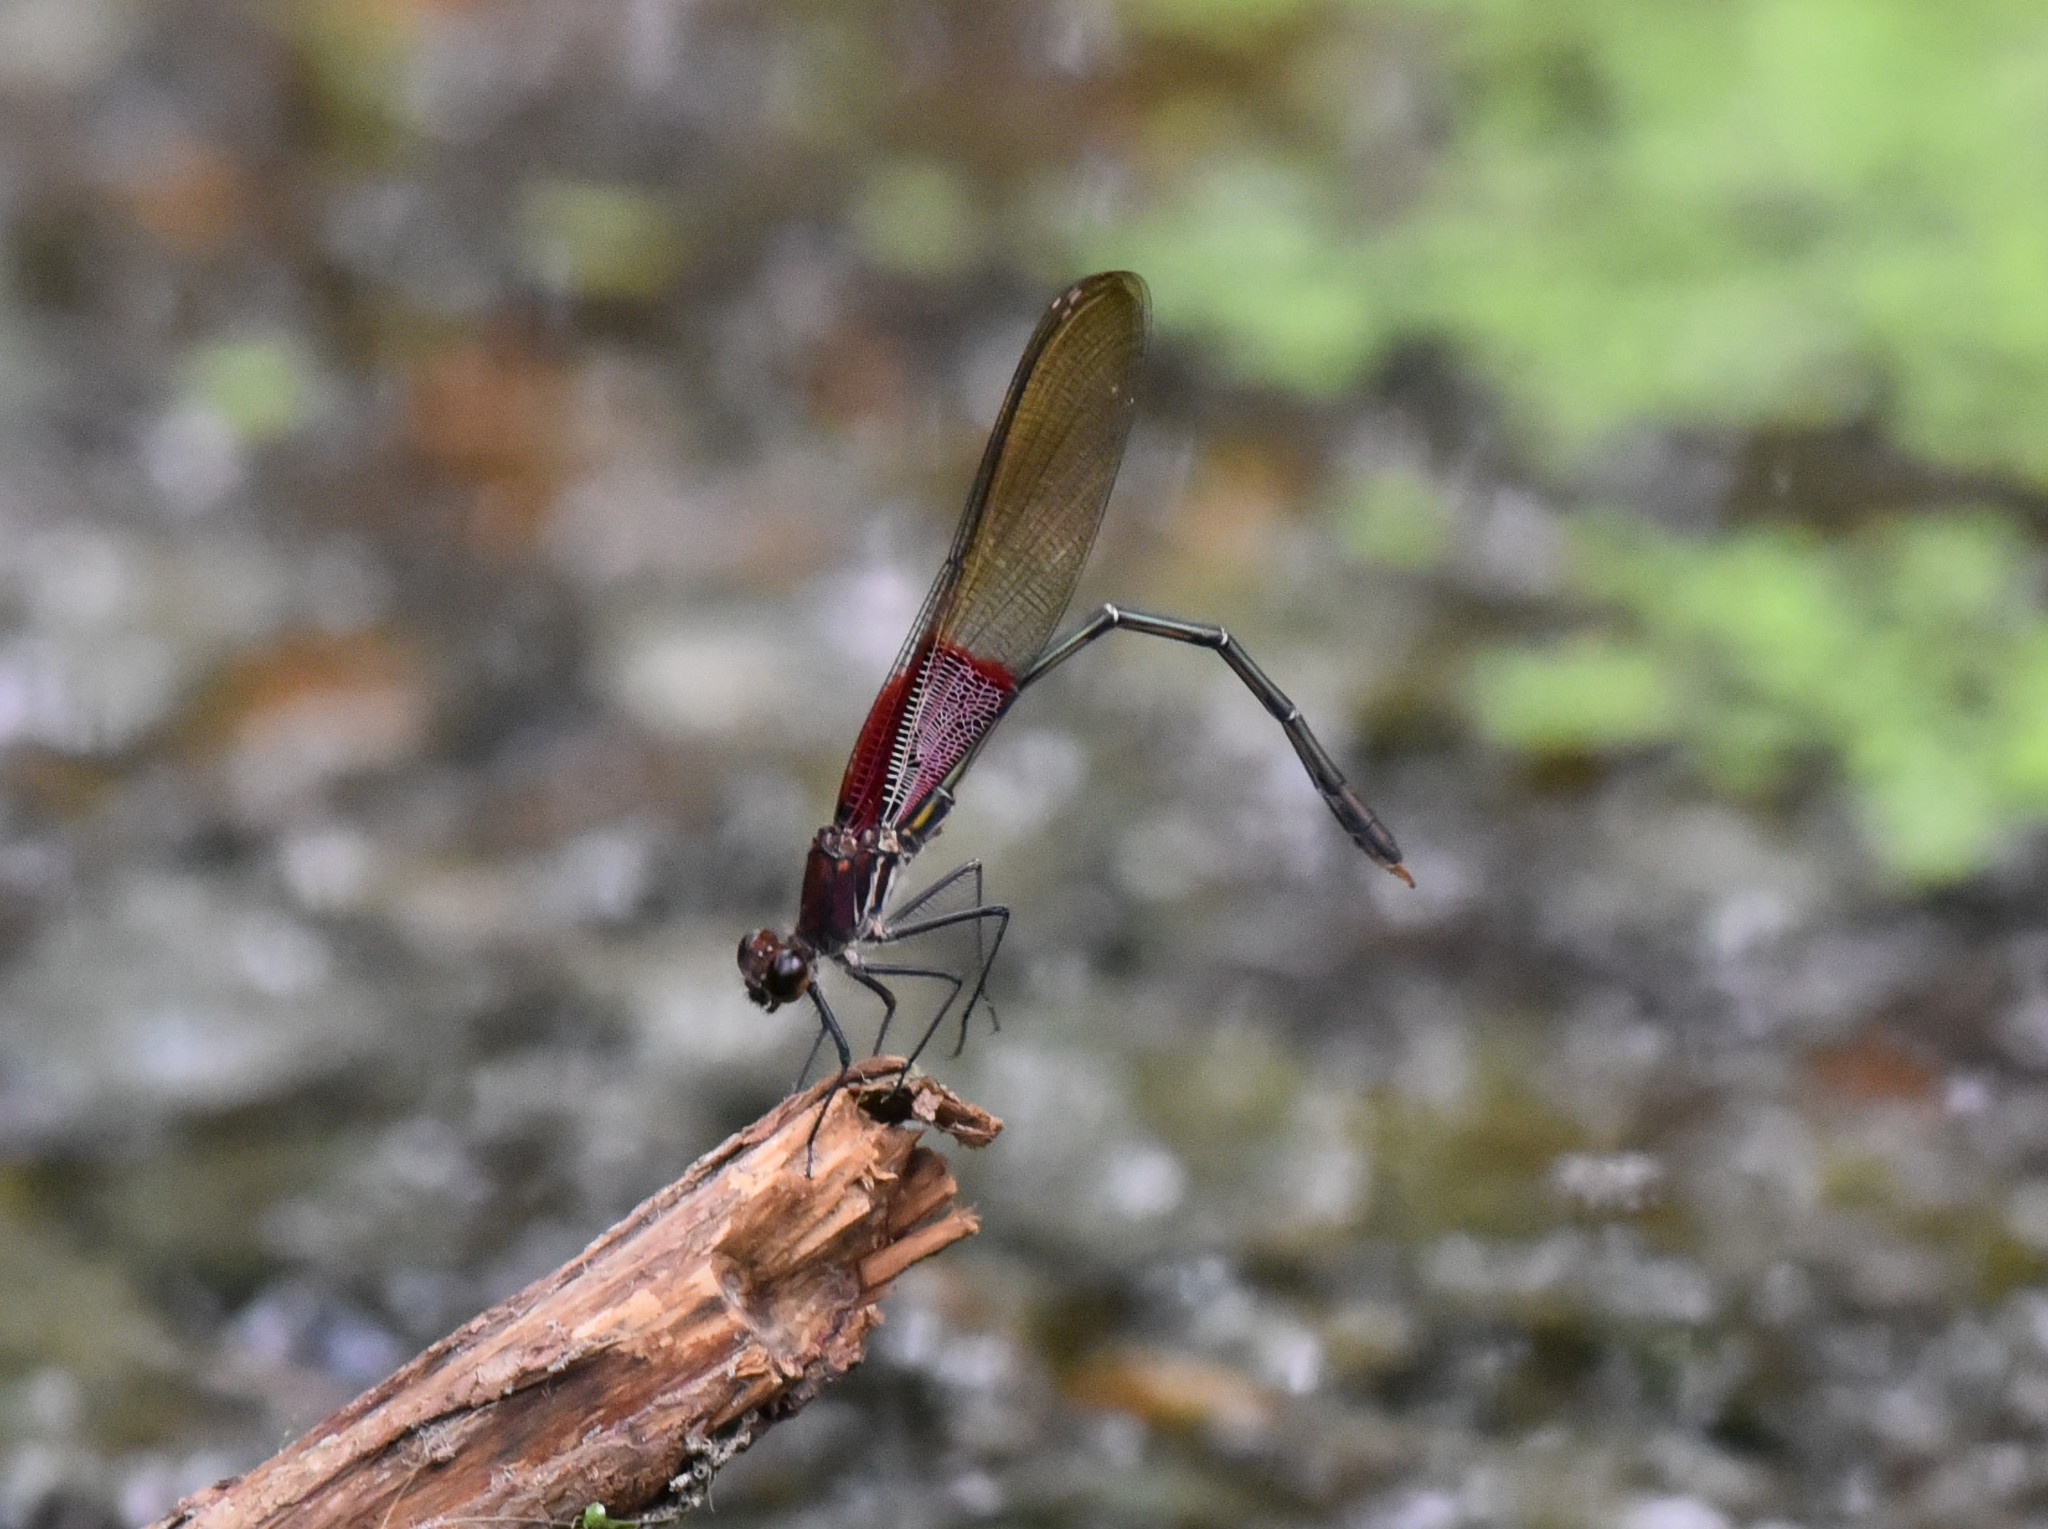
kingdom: Animalia
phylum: Arthropoda
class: Insecta
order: Odonata
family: Calopterygidae
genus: Hetaerina
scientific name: Hetaerina americana
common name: American rubyspot
